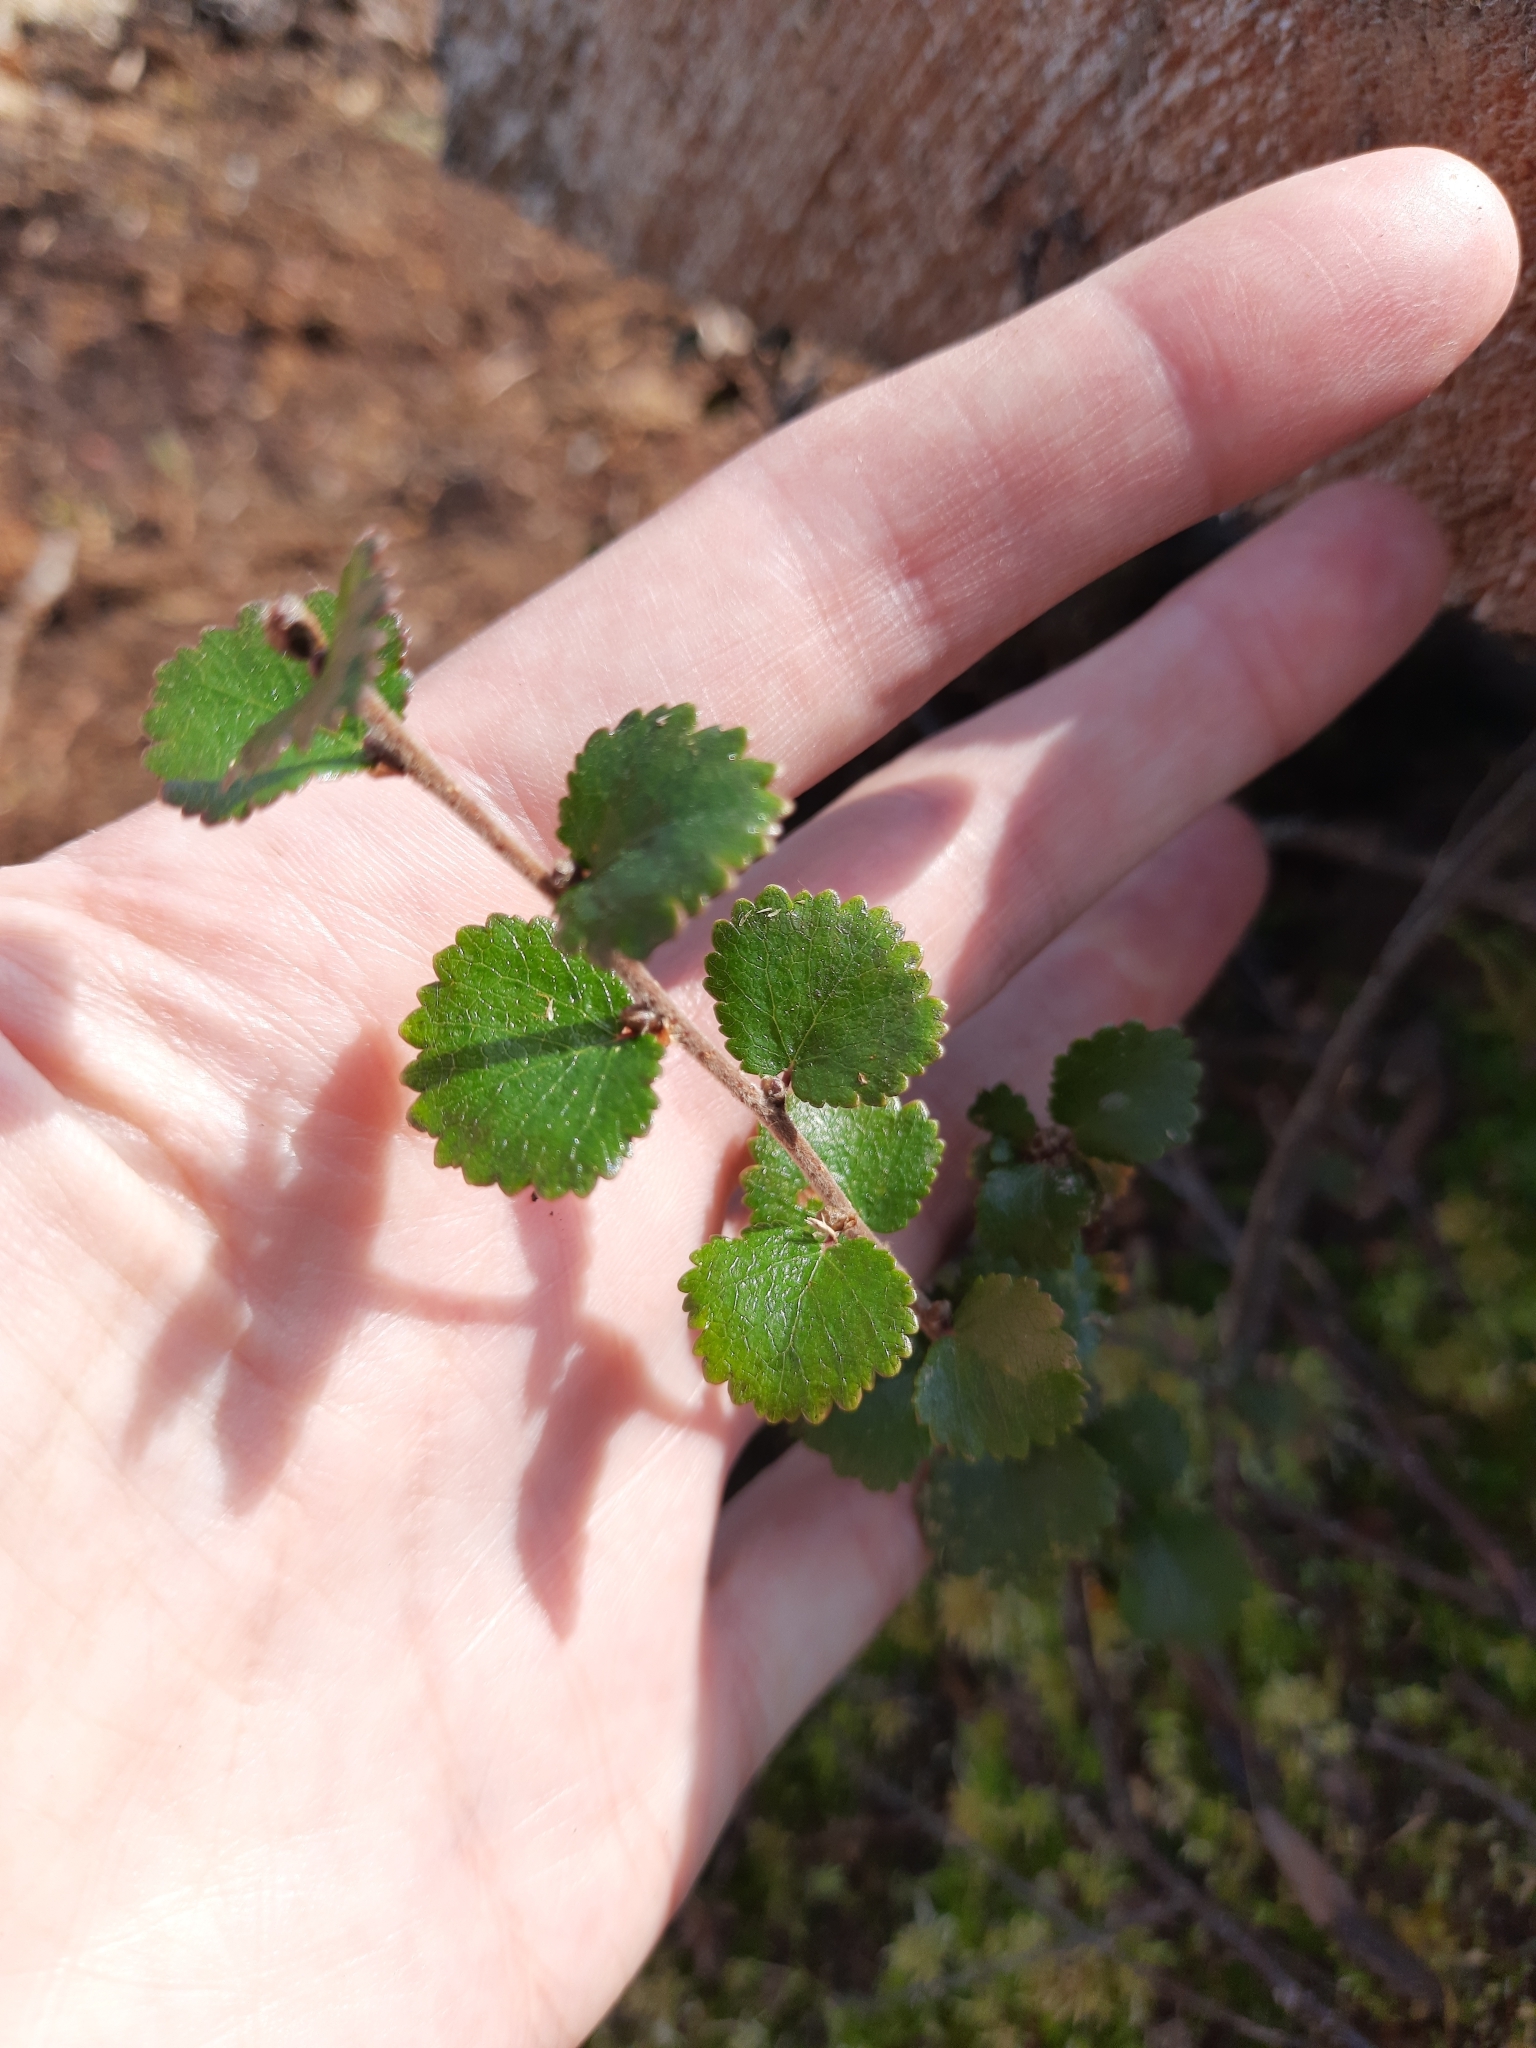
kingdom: Plantae
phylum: Tracheophyta
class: Magnoliopsida
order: Fagales
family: Betulaceae
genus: Betula
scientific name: Betula nana
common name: Arctic dwarf birch
